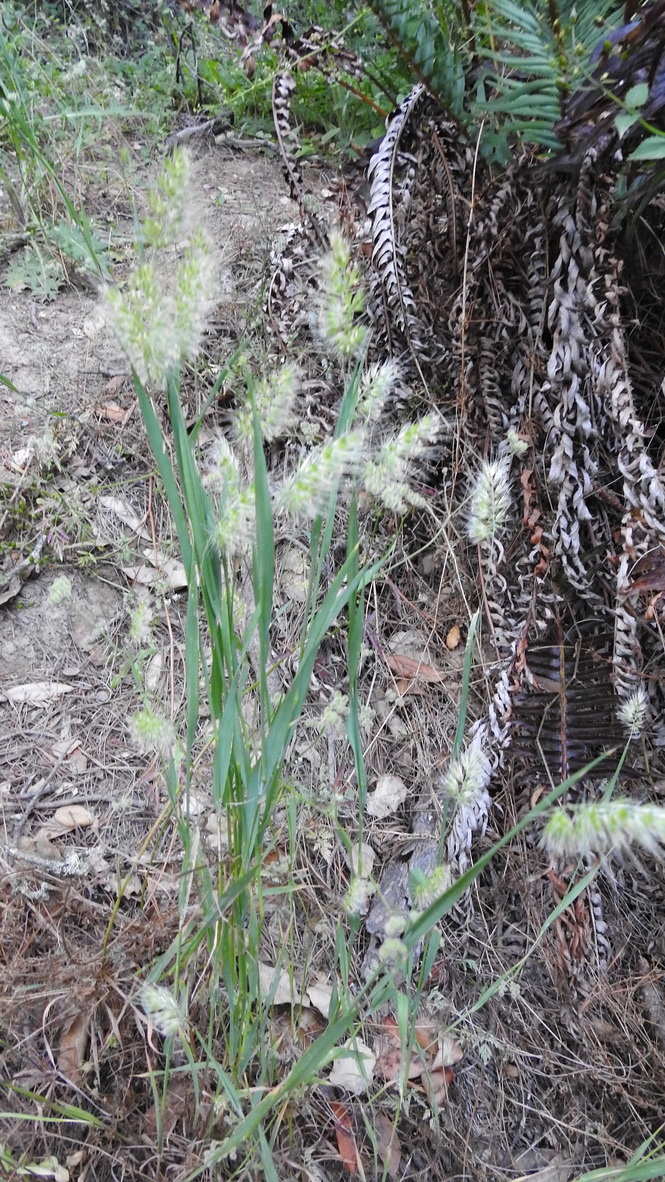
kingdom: Plantae
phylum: Tracheophyta
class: Liliopsida
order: Poales
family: Poaceae
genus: Cynosurus
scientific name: Cynosurus echinatus
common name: Rough dog's-tail
